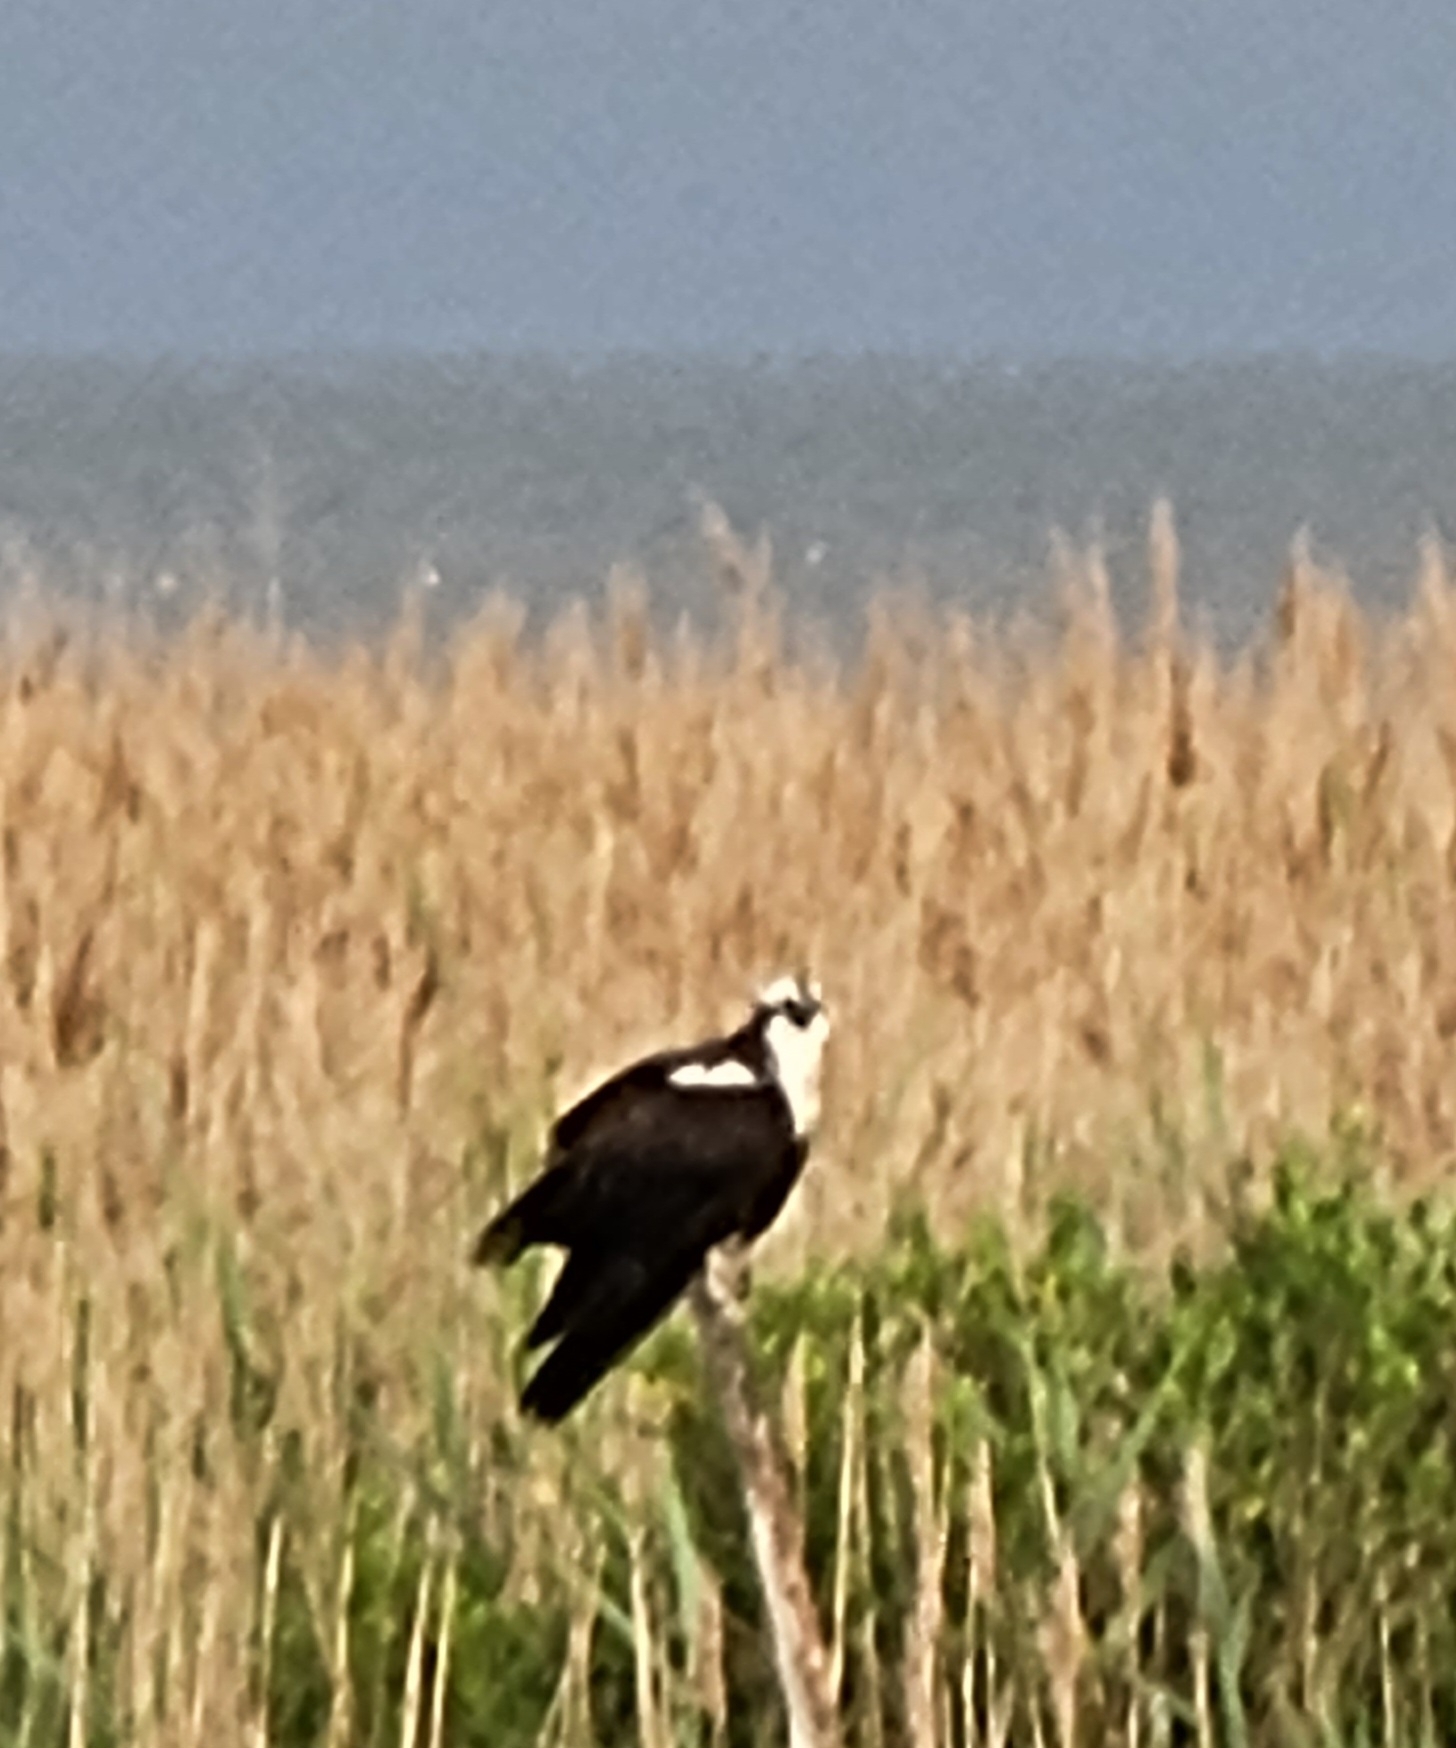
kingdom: Animalia
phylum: Chordata
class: Aves
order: Accipitriformes
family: Pandionidae
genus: Pandion
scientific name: Pandion haliaetus
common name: Osprey
